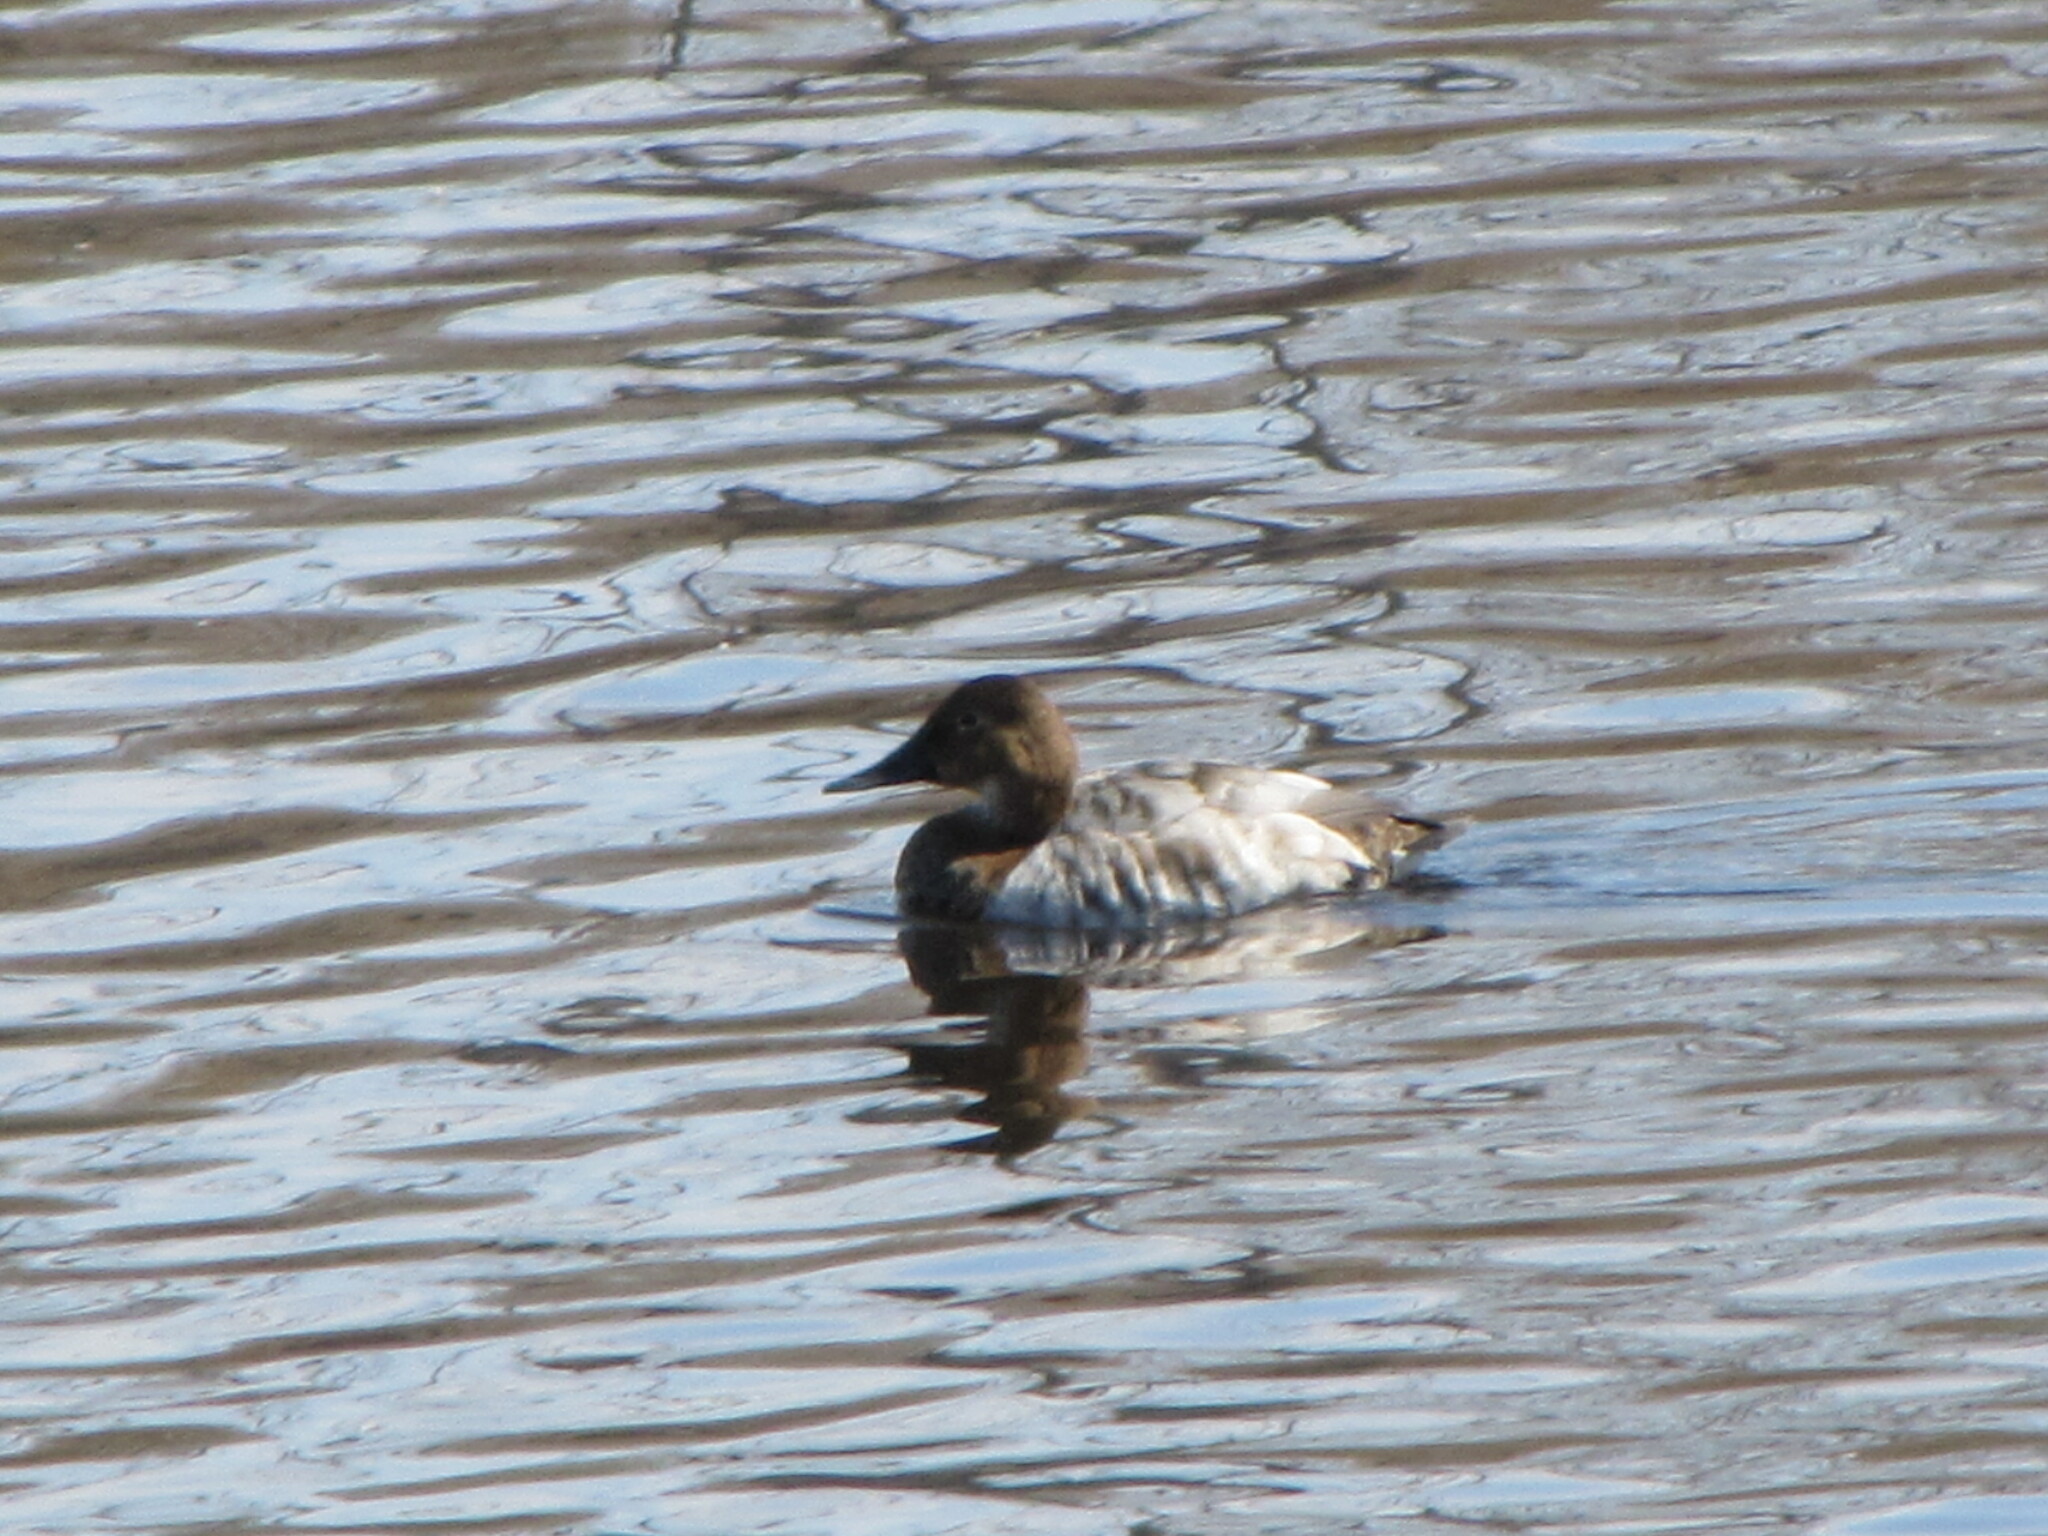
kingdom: Animalia
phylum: Chordata
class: Aves
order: Anseriformes
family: Anatidae
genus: Aythya
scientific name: Aythya valisineria
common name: Canvasback
